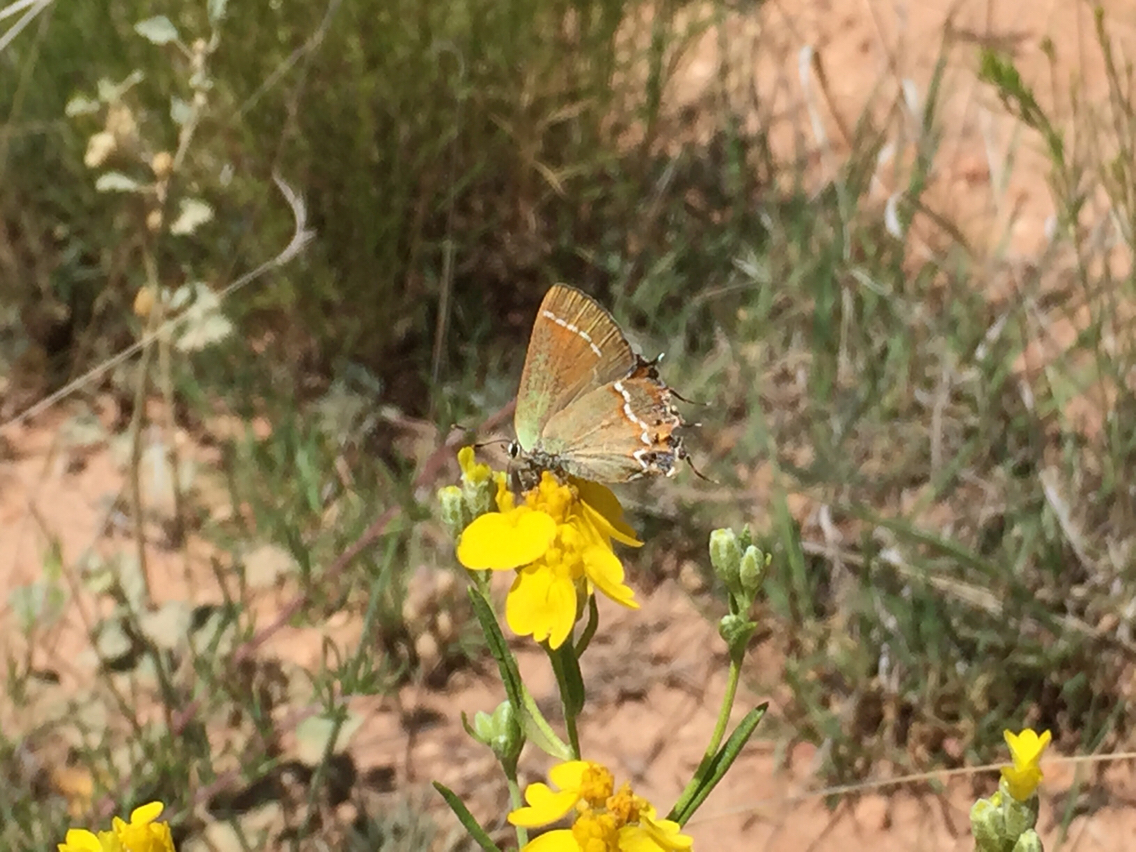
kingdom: Animalia
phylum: Arthropoda
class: Insecta
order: Lepidoptera
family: Lycaenidae
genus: Mitoura
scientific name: Mitoura siva
